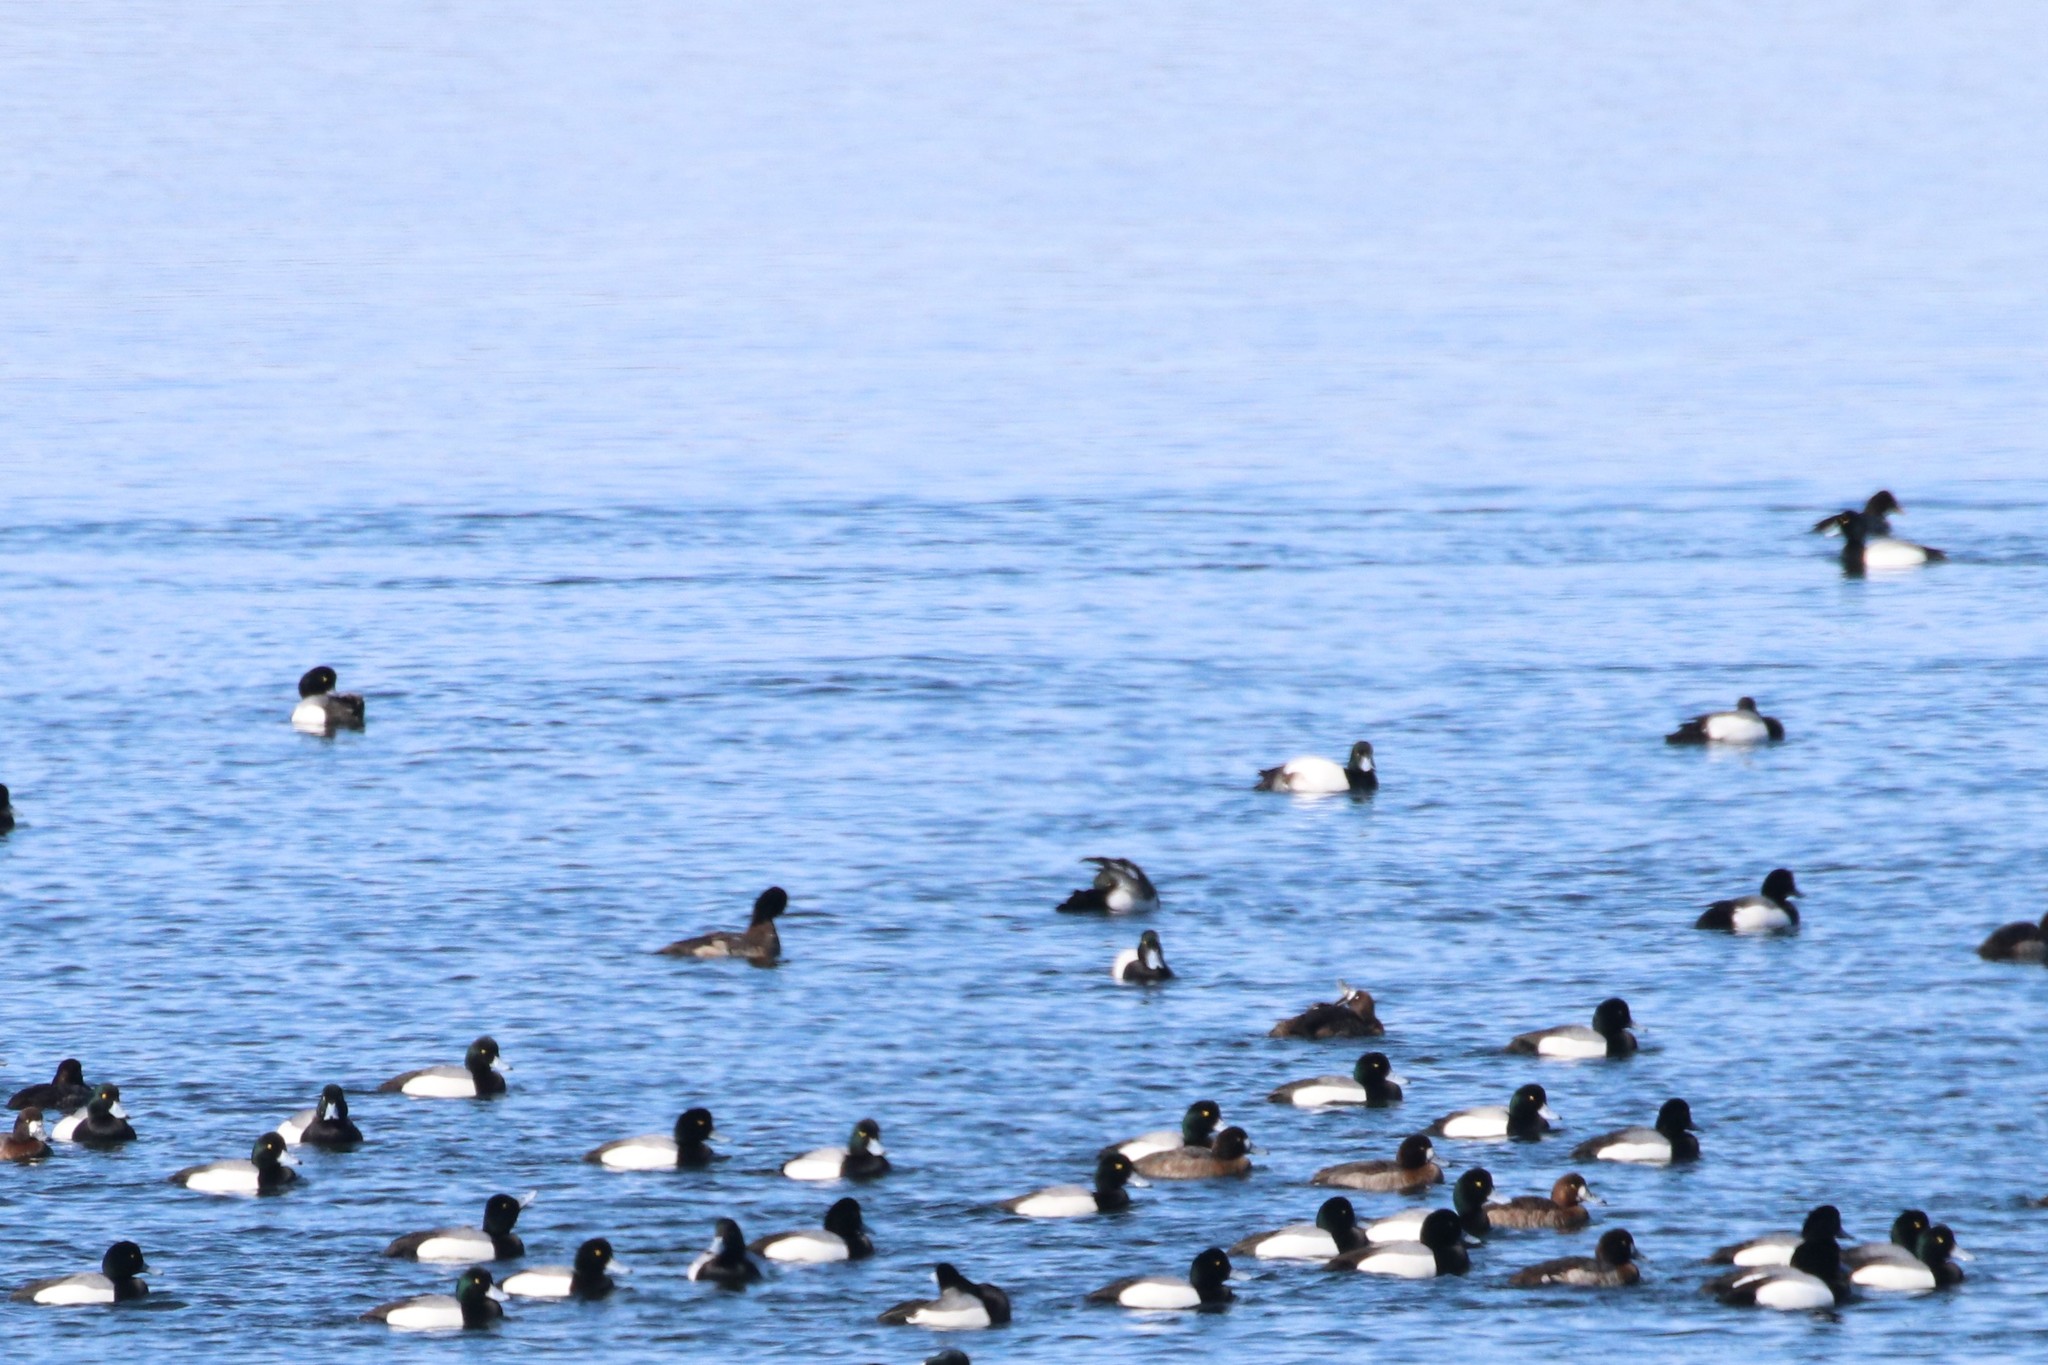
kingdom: Animalia
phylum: Chordata
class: Aves
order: Anseriformes
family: Anatidae
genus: Aythya
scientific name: Aythya marila
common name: Greater scaup
